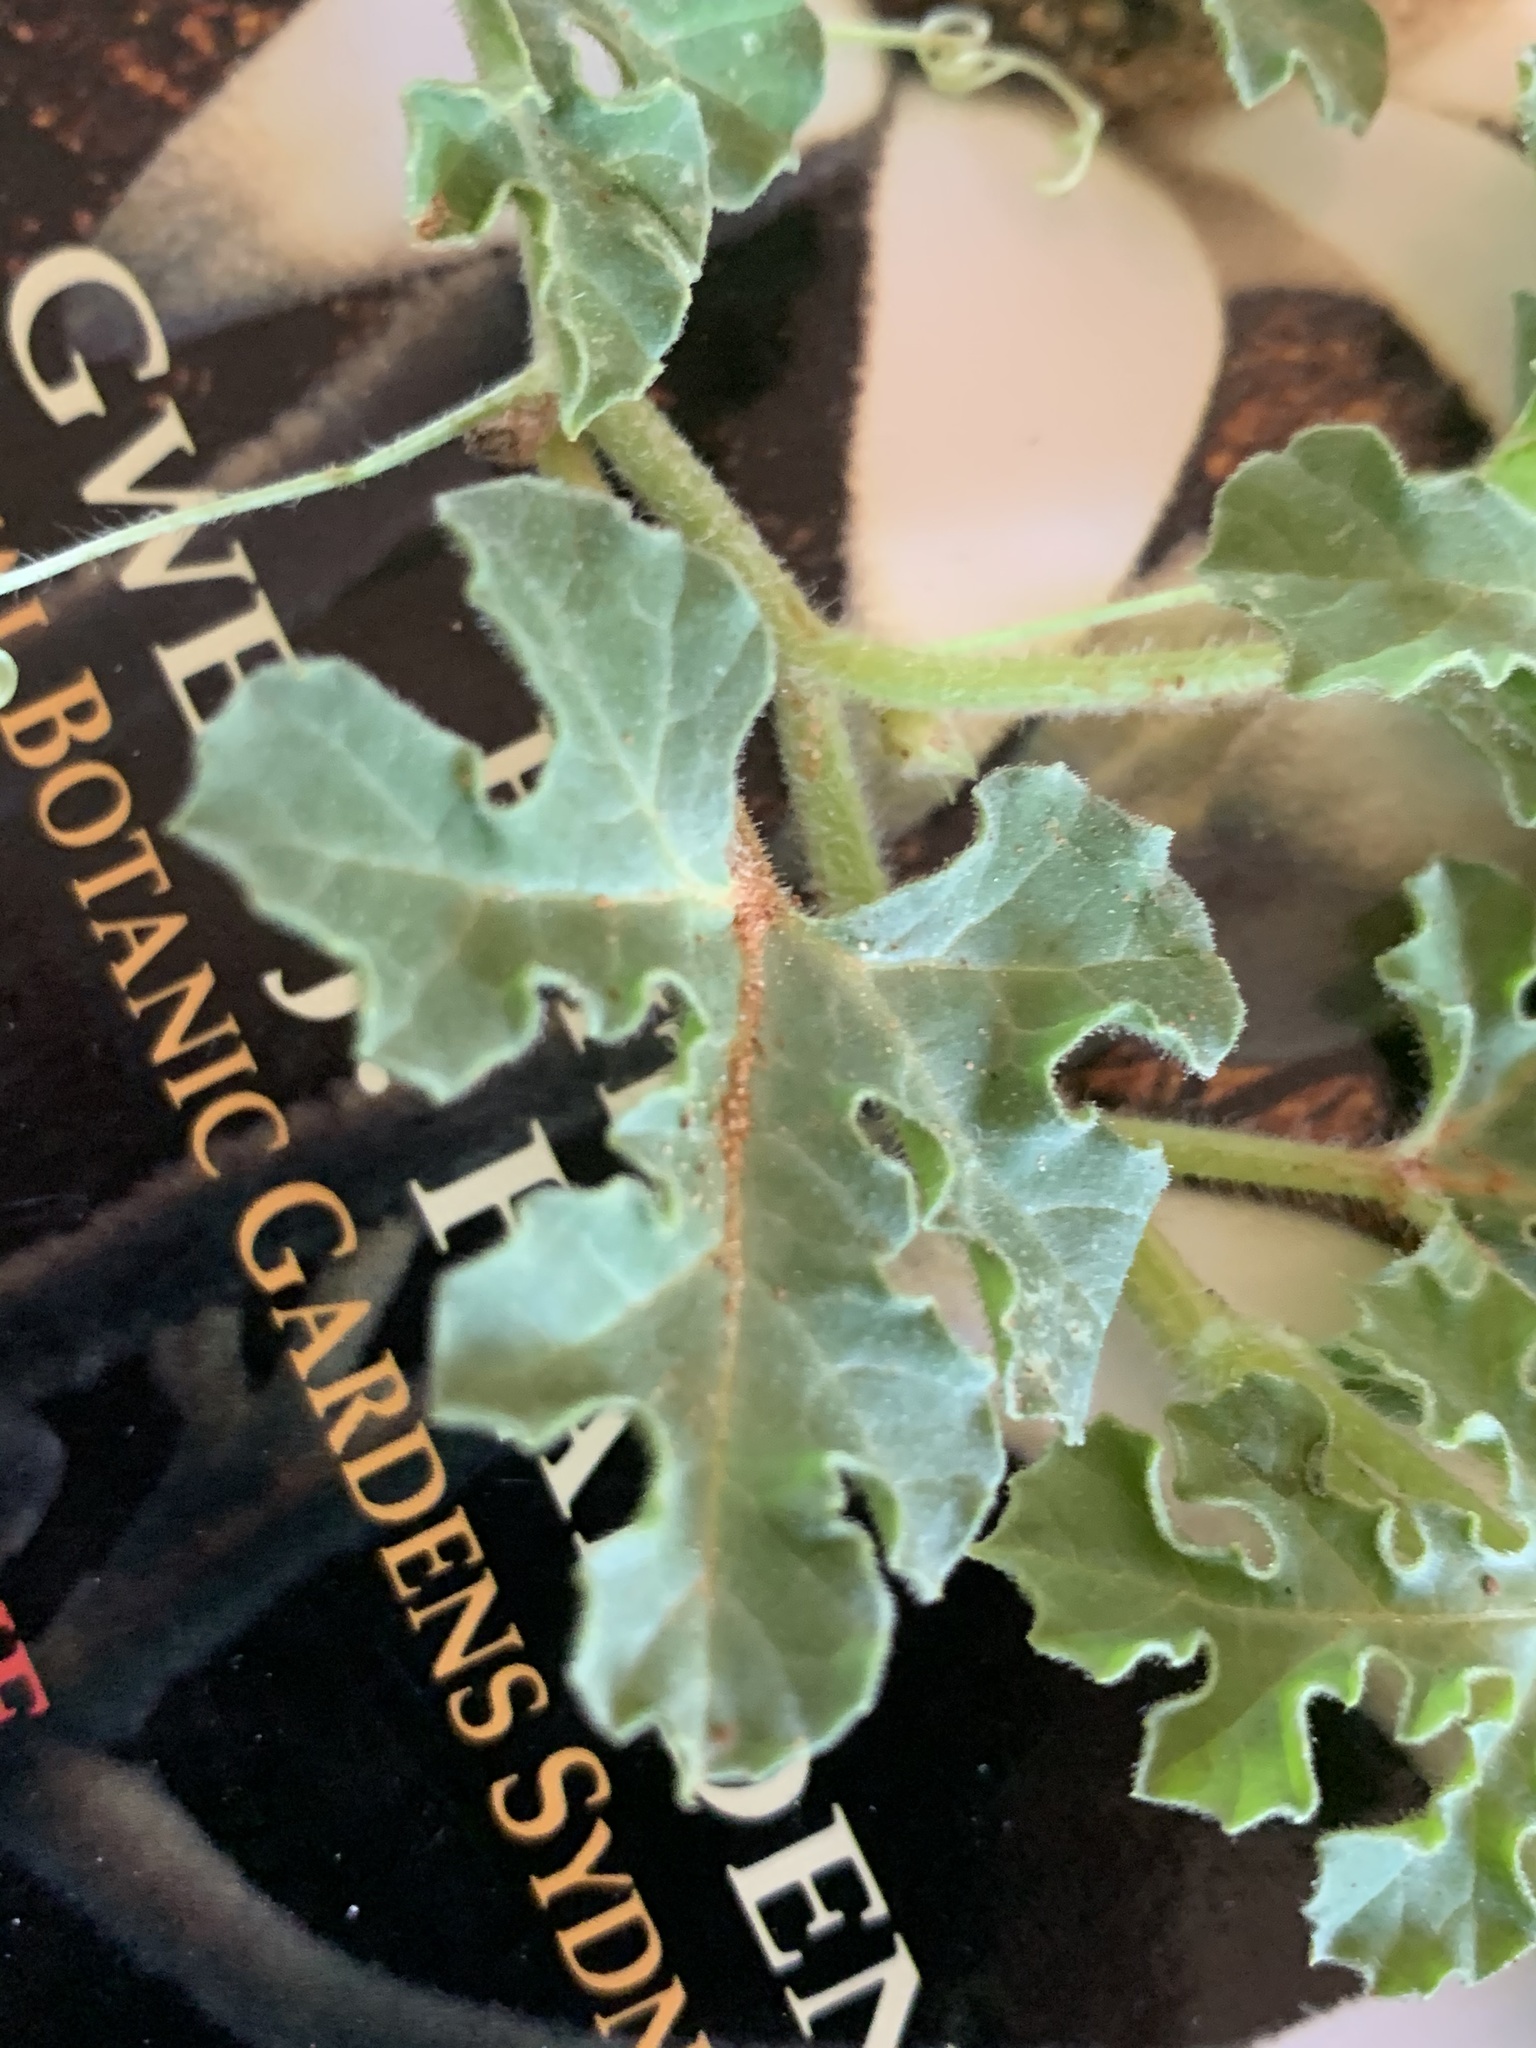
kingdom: Plantae
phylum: Tracheophyta
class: Magnoliopsida
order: Cucurbitales
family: Cucurbitaceae
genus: Citrullus
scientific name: Citrullus amarus
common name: Fodder-melon
